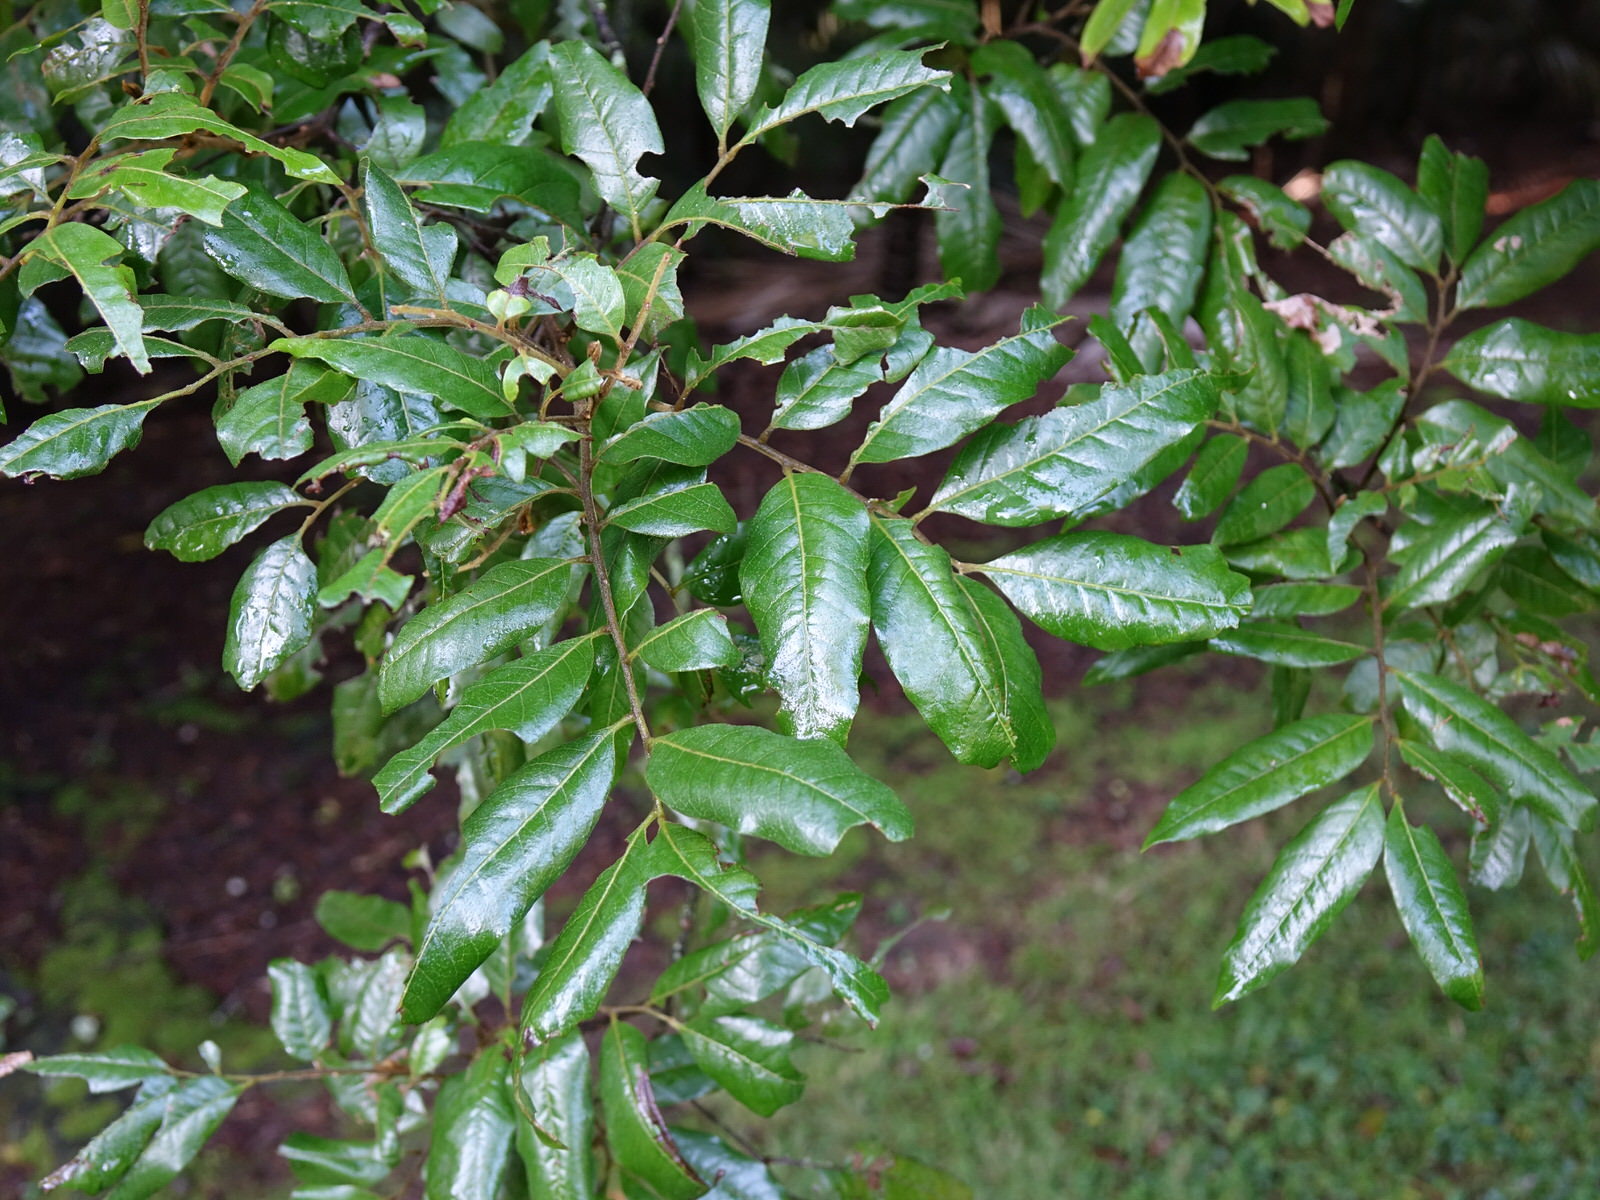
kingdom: Plantae
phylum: Tracheophyta
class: Magnoliopsida
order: Sapindales
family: Sapindaceae
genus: Alectryon
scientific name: Alectryon excelsus
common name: Three kings titoki
